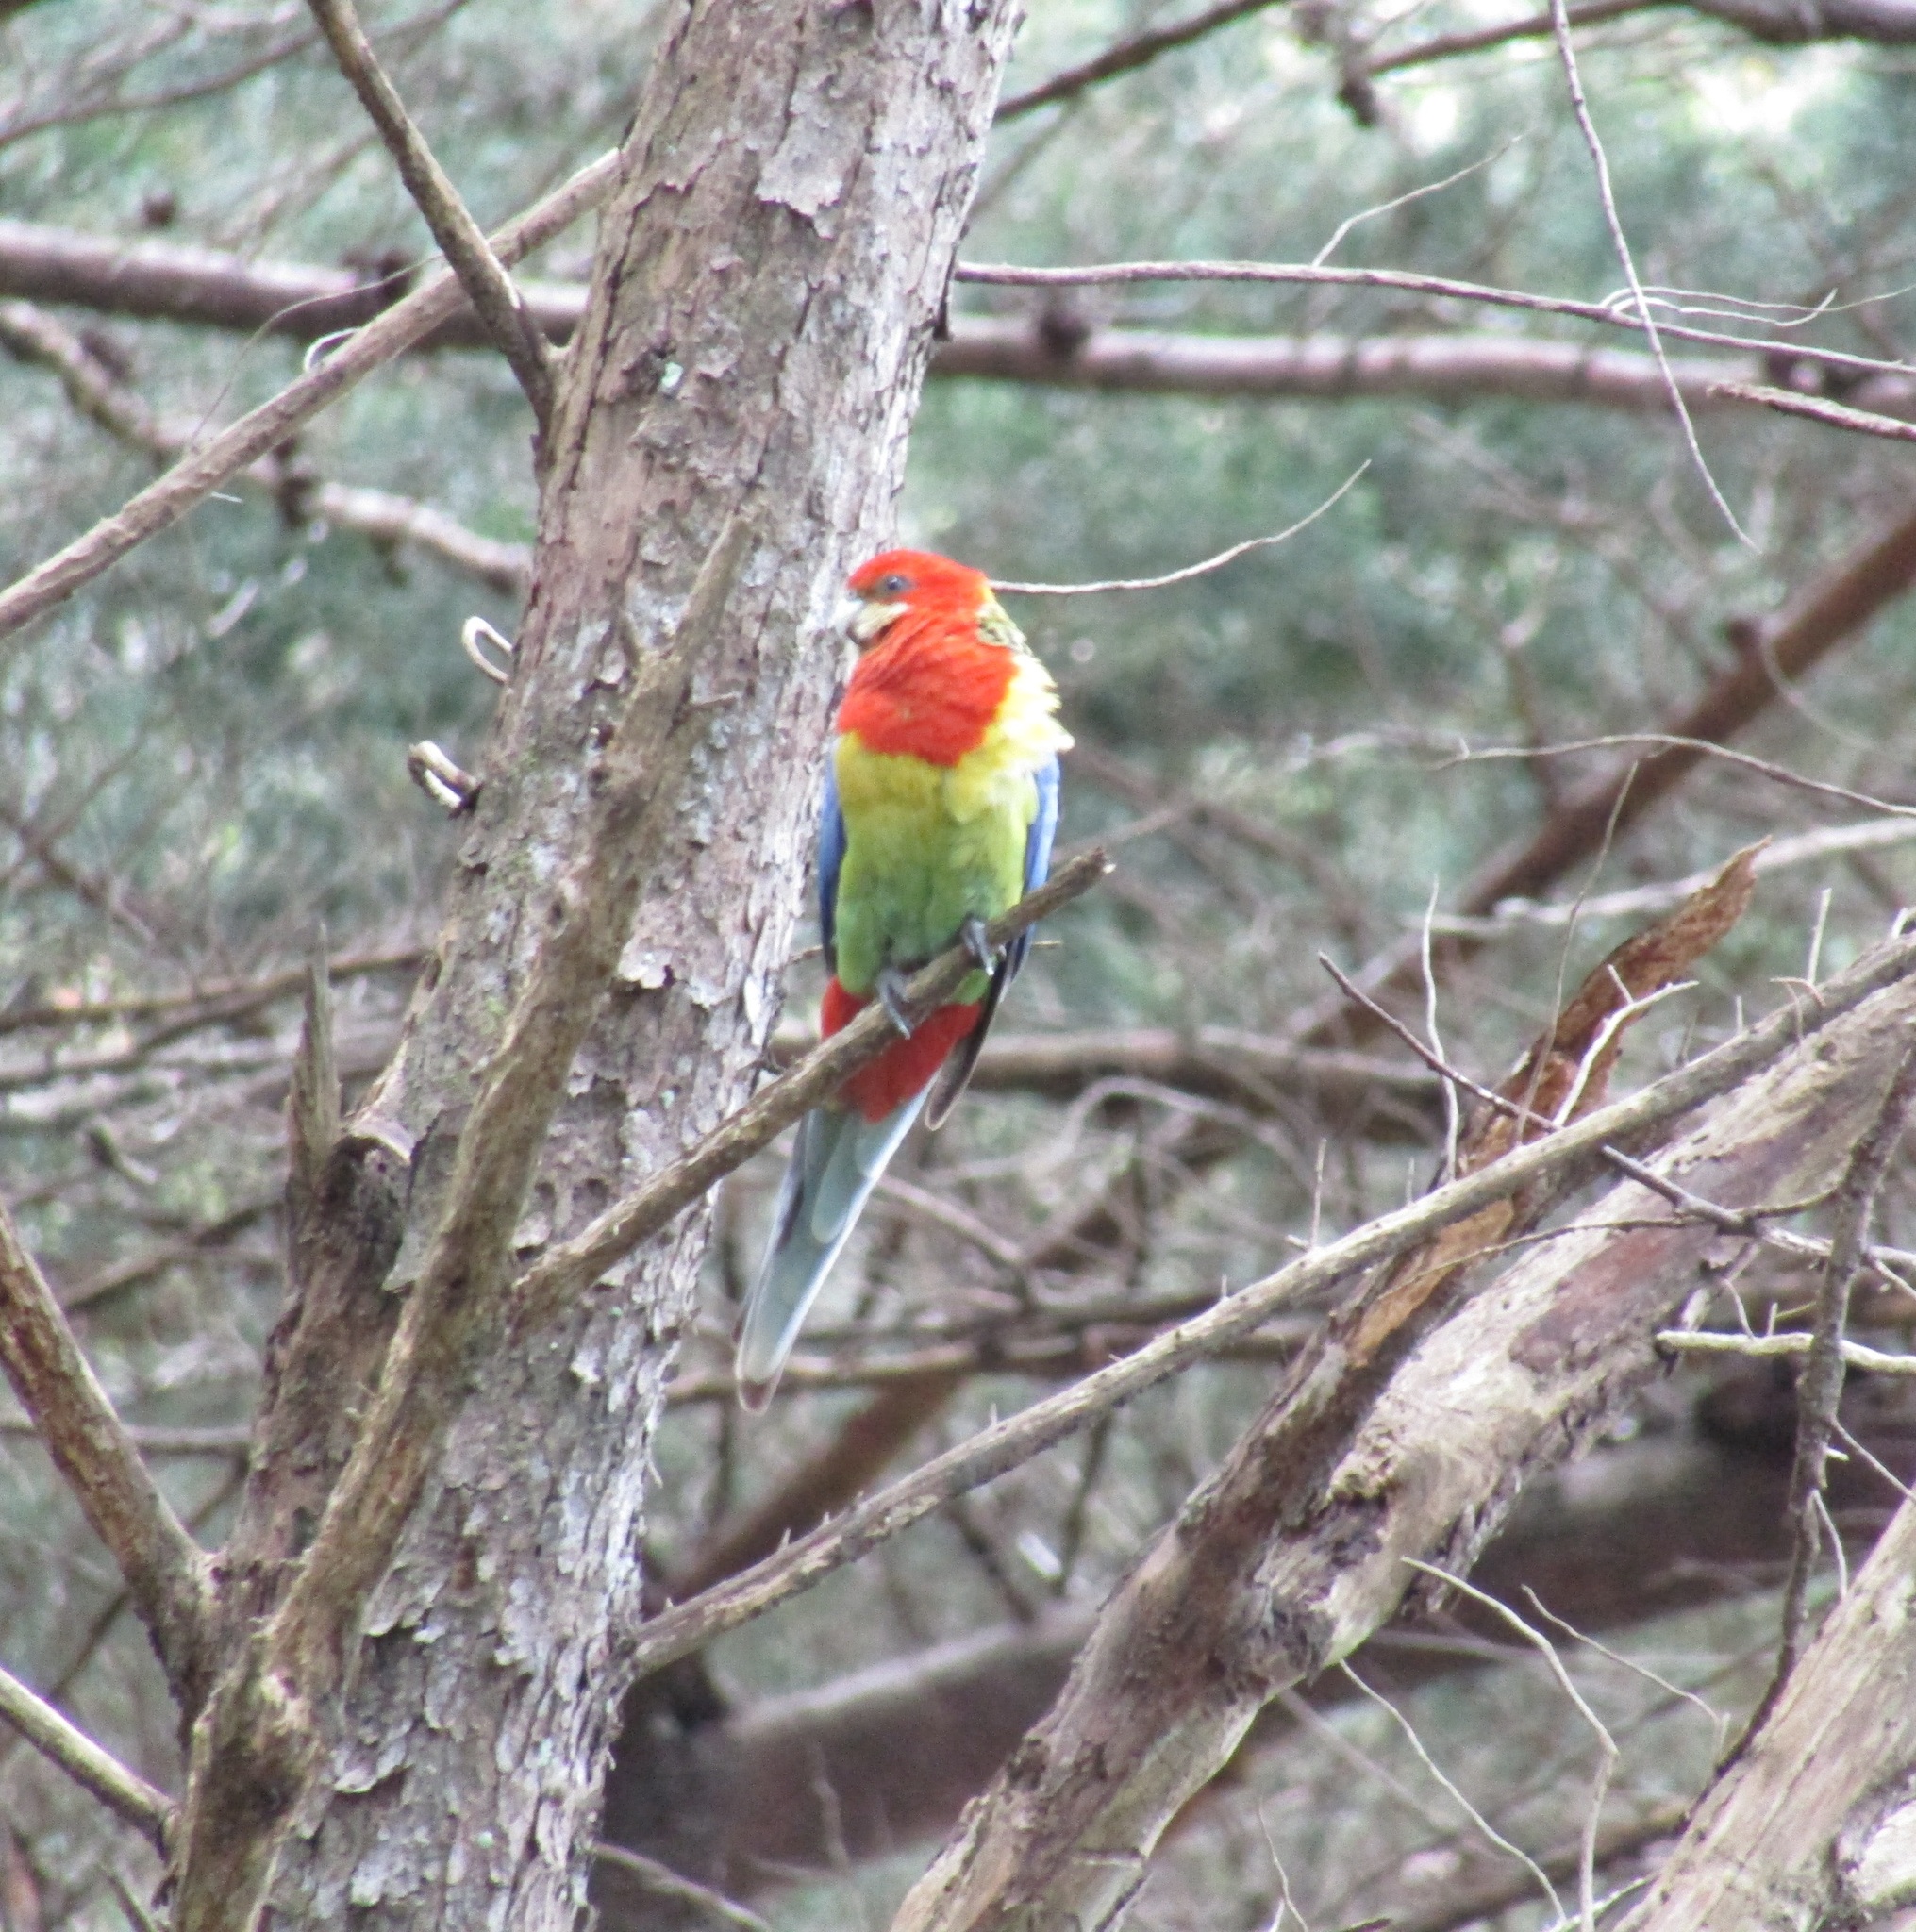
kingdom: Animalia
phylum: Chordata
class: Aves
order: Psittaciformes
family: Psittacidae
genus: Platycercus
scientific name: Platycercus eximius
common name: Eastern rosella
